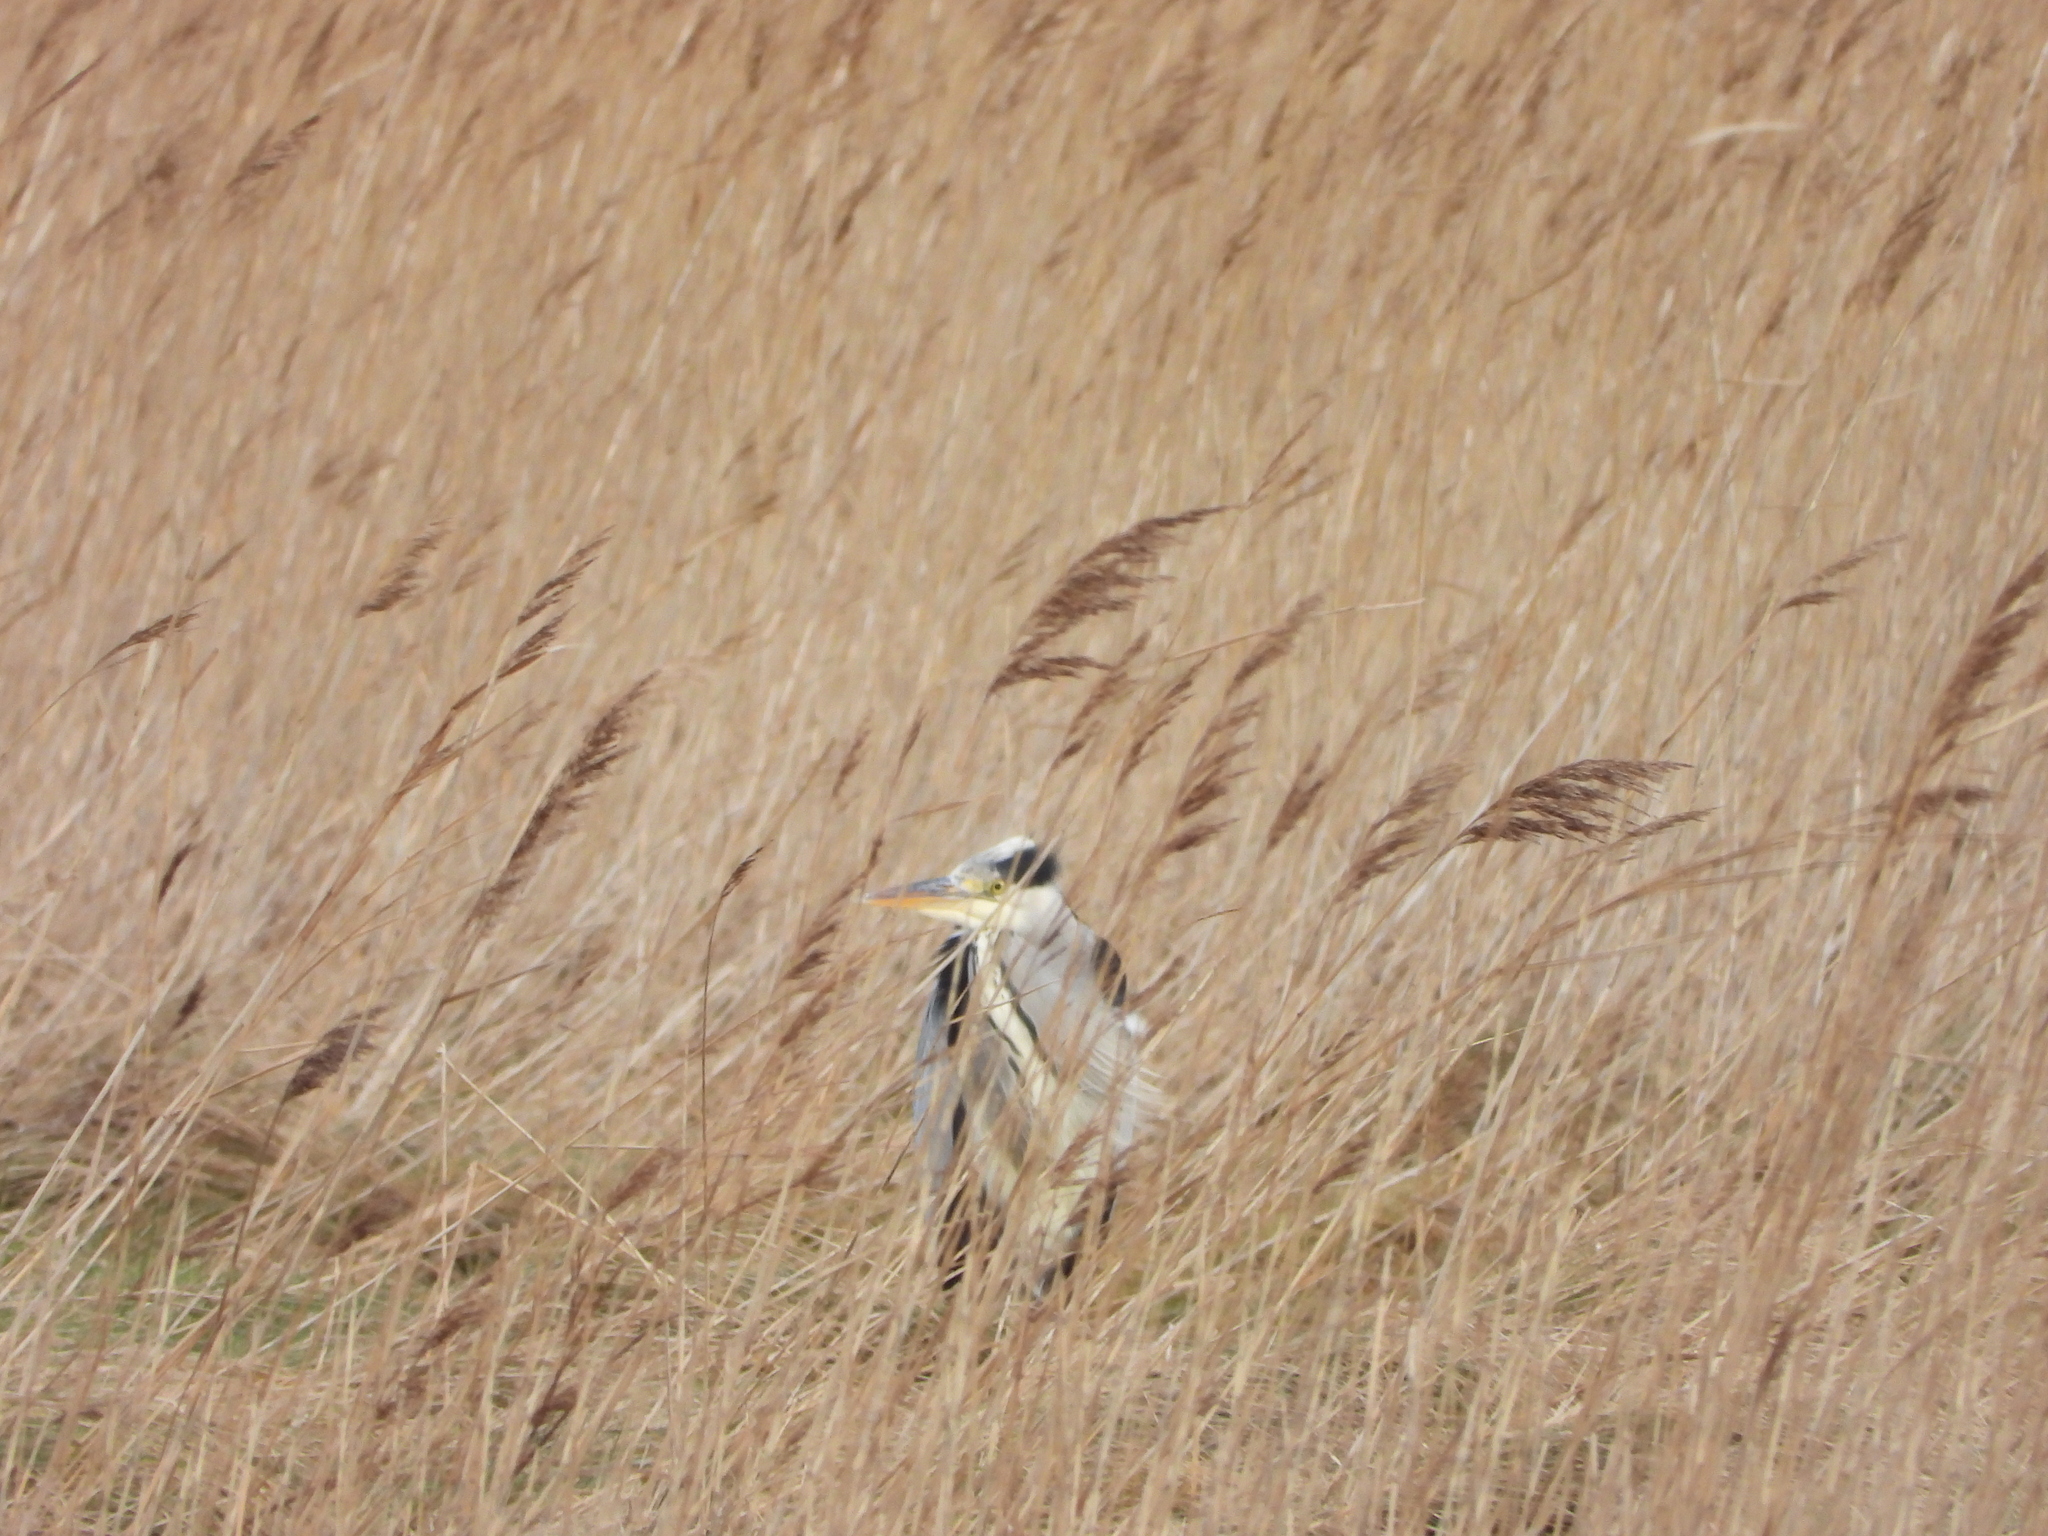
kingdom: Animalia
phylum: Chordata
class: Aves
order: Pelecaniformes
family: Ardeidae
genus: Ardea
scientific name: Ardea cinerea
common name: Grey heron
